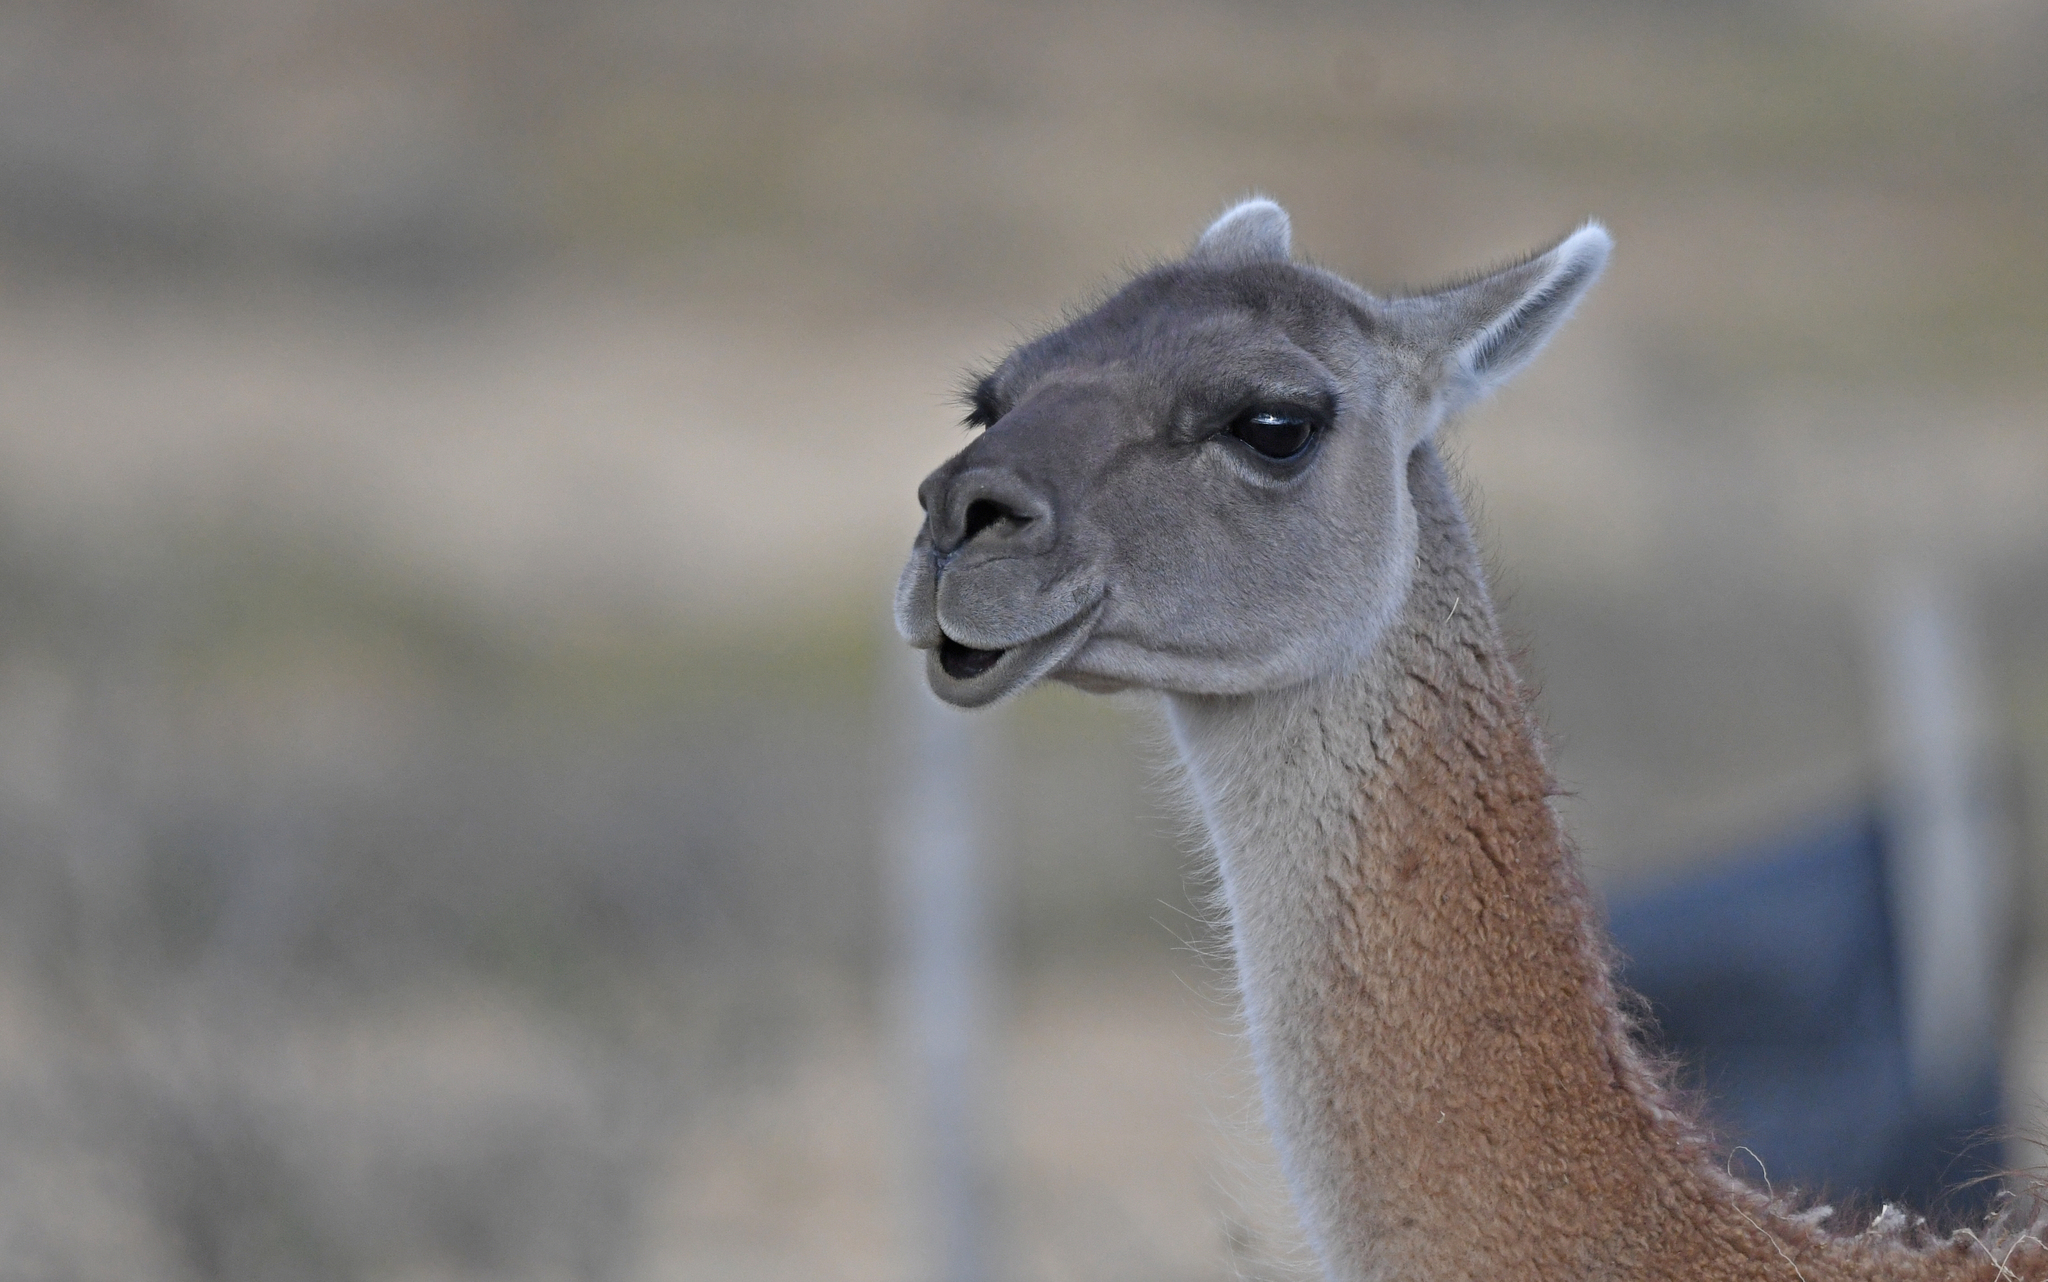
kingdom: Animalia
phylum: Chordata
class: Mammalia
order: Artiodactyla
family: Camelidae
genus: Lama
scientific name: Lama glama
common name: Llama
